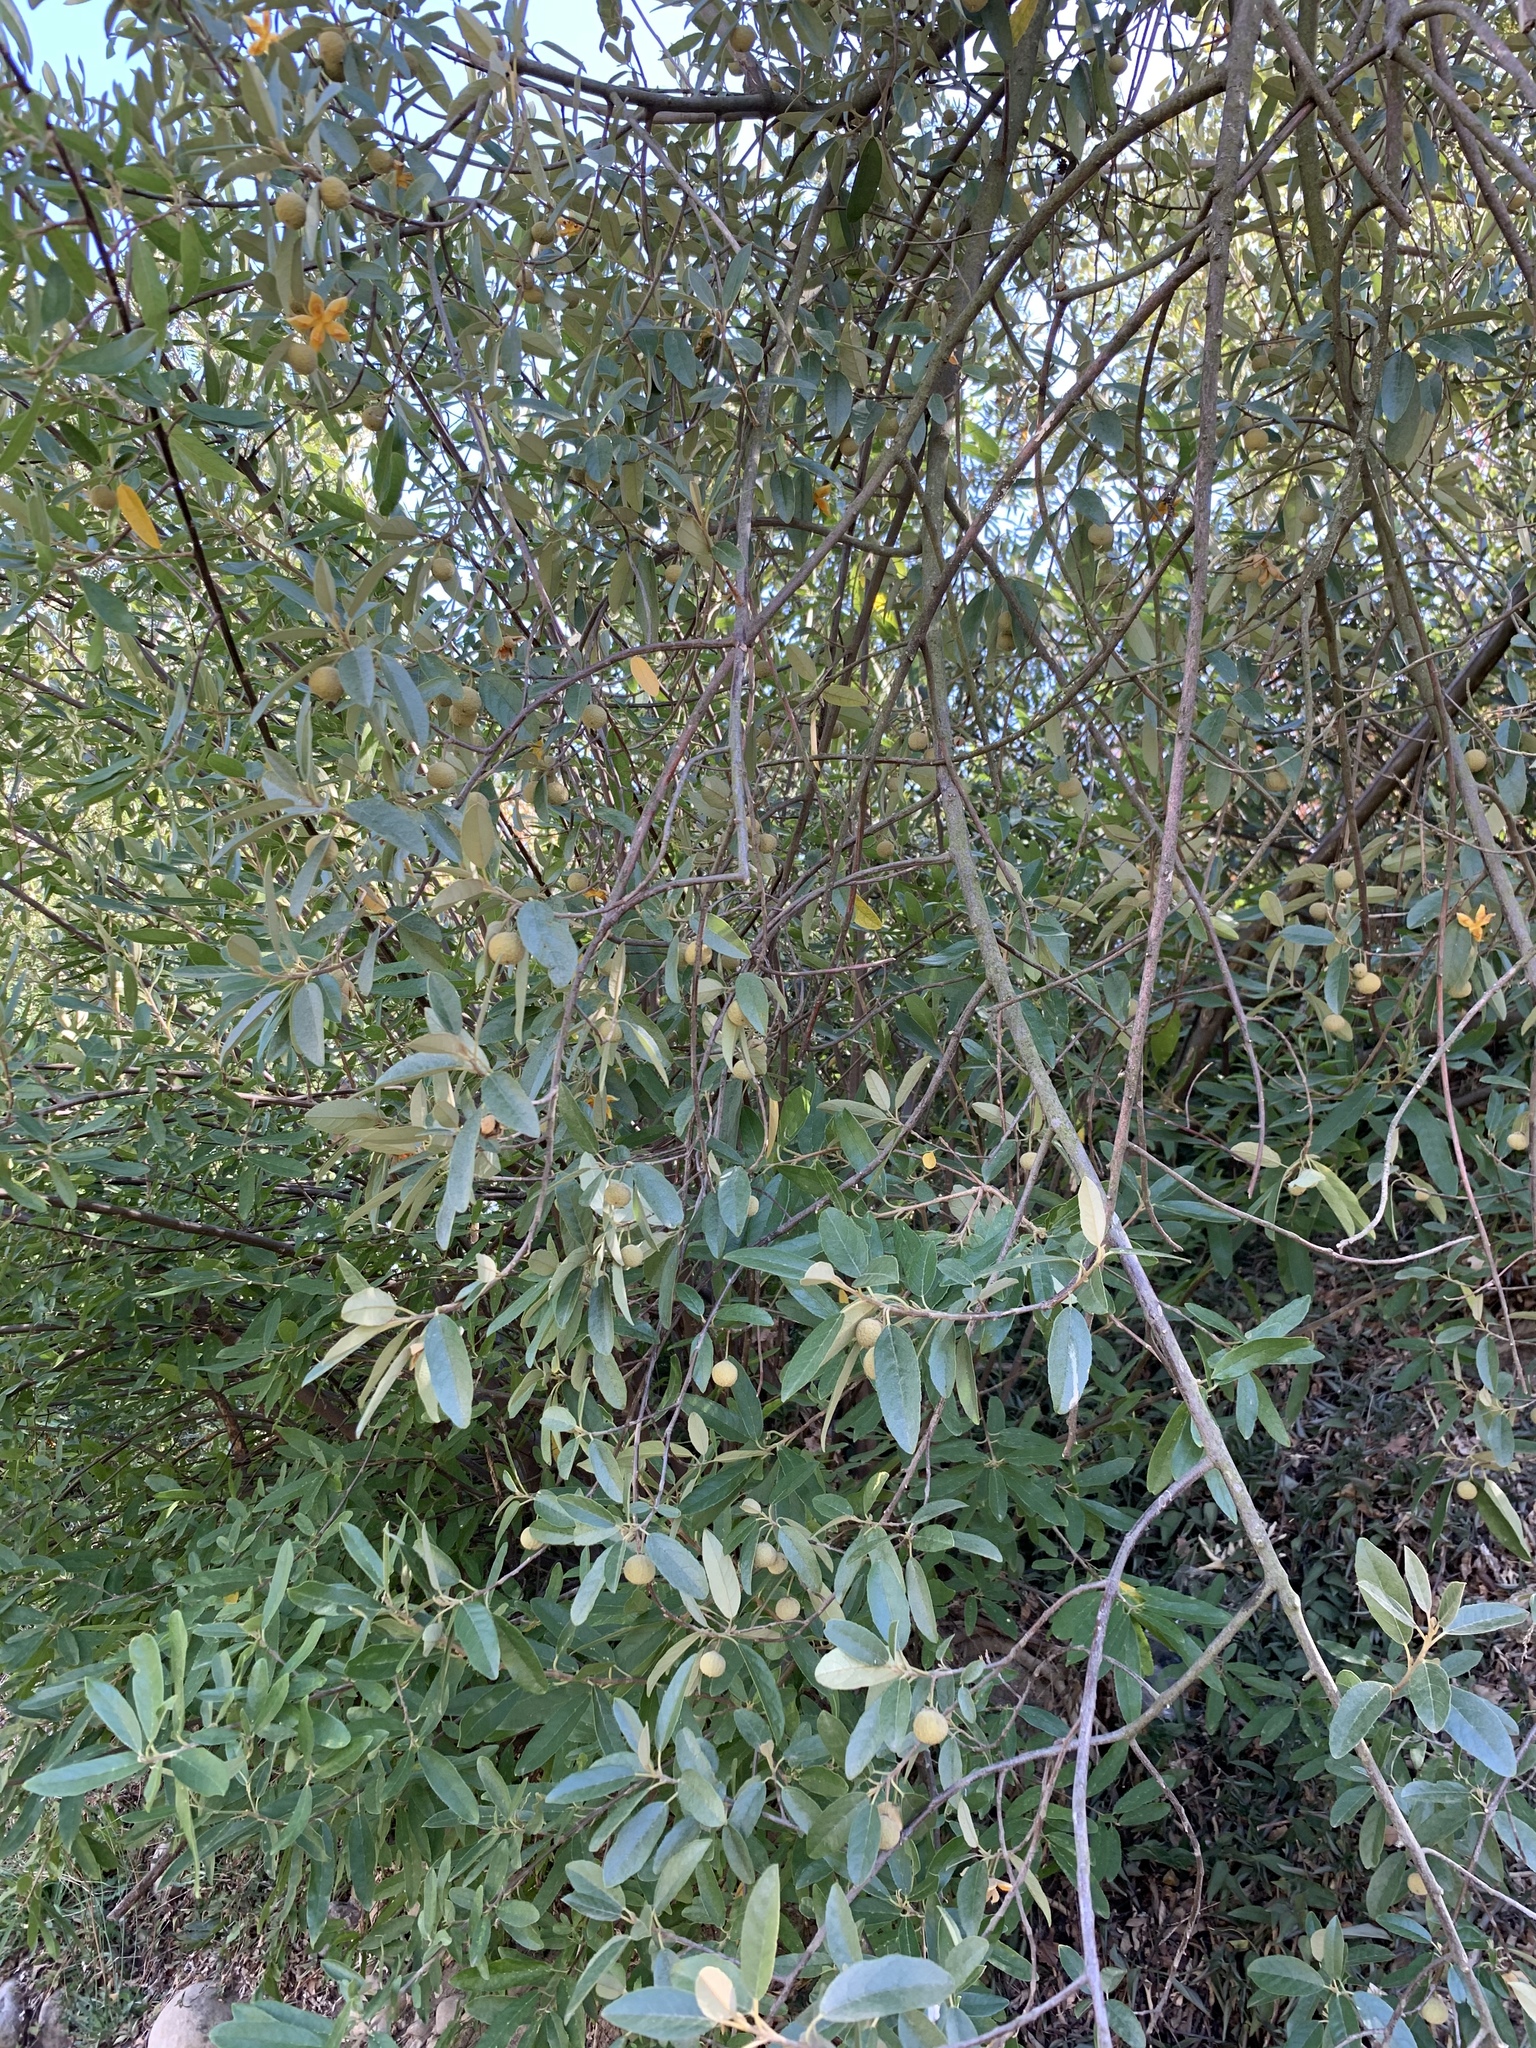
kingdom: Plantae
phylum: Tracheophyta
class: Magnoliopsida
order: Malpighiales
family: Achariaceae
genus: Kiggelaria
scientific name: Kiggelaria africana
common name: Wild peach
